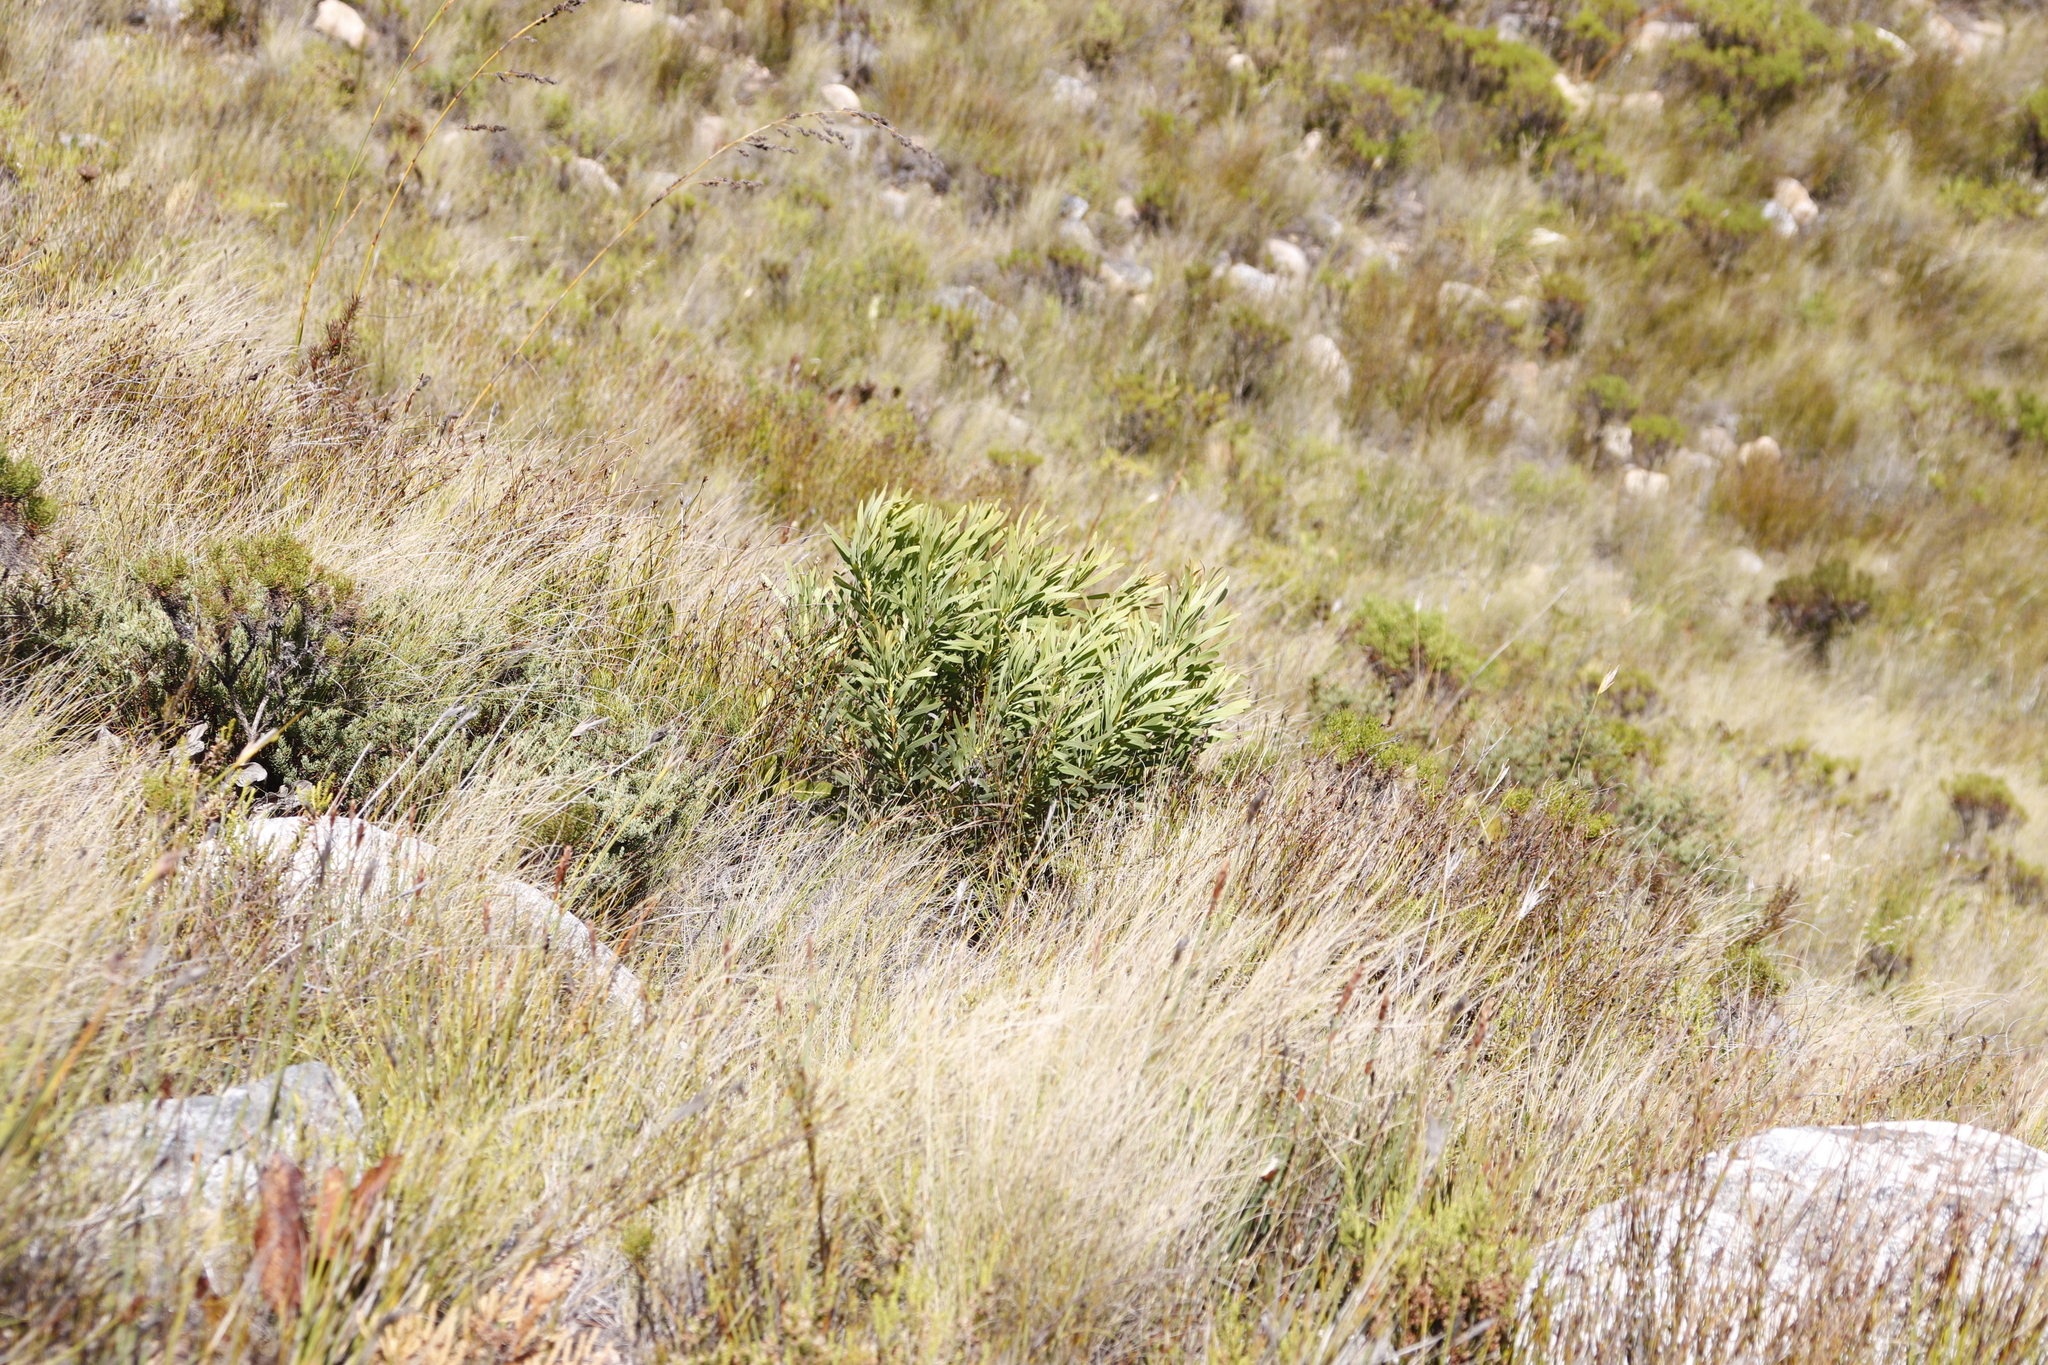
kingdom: Plantae
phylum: Tracheophyta
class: Magnoliopsida
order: Proteales
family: Proteaceae
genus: Protea
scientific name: Protea repens
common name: Sugarbush
